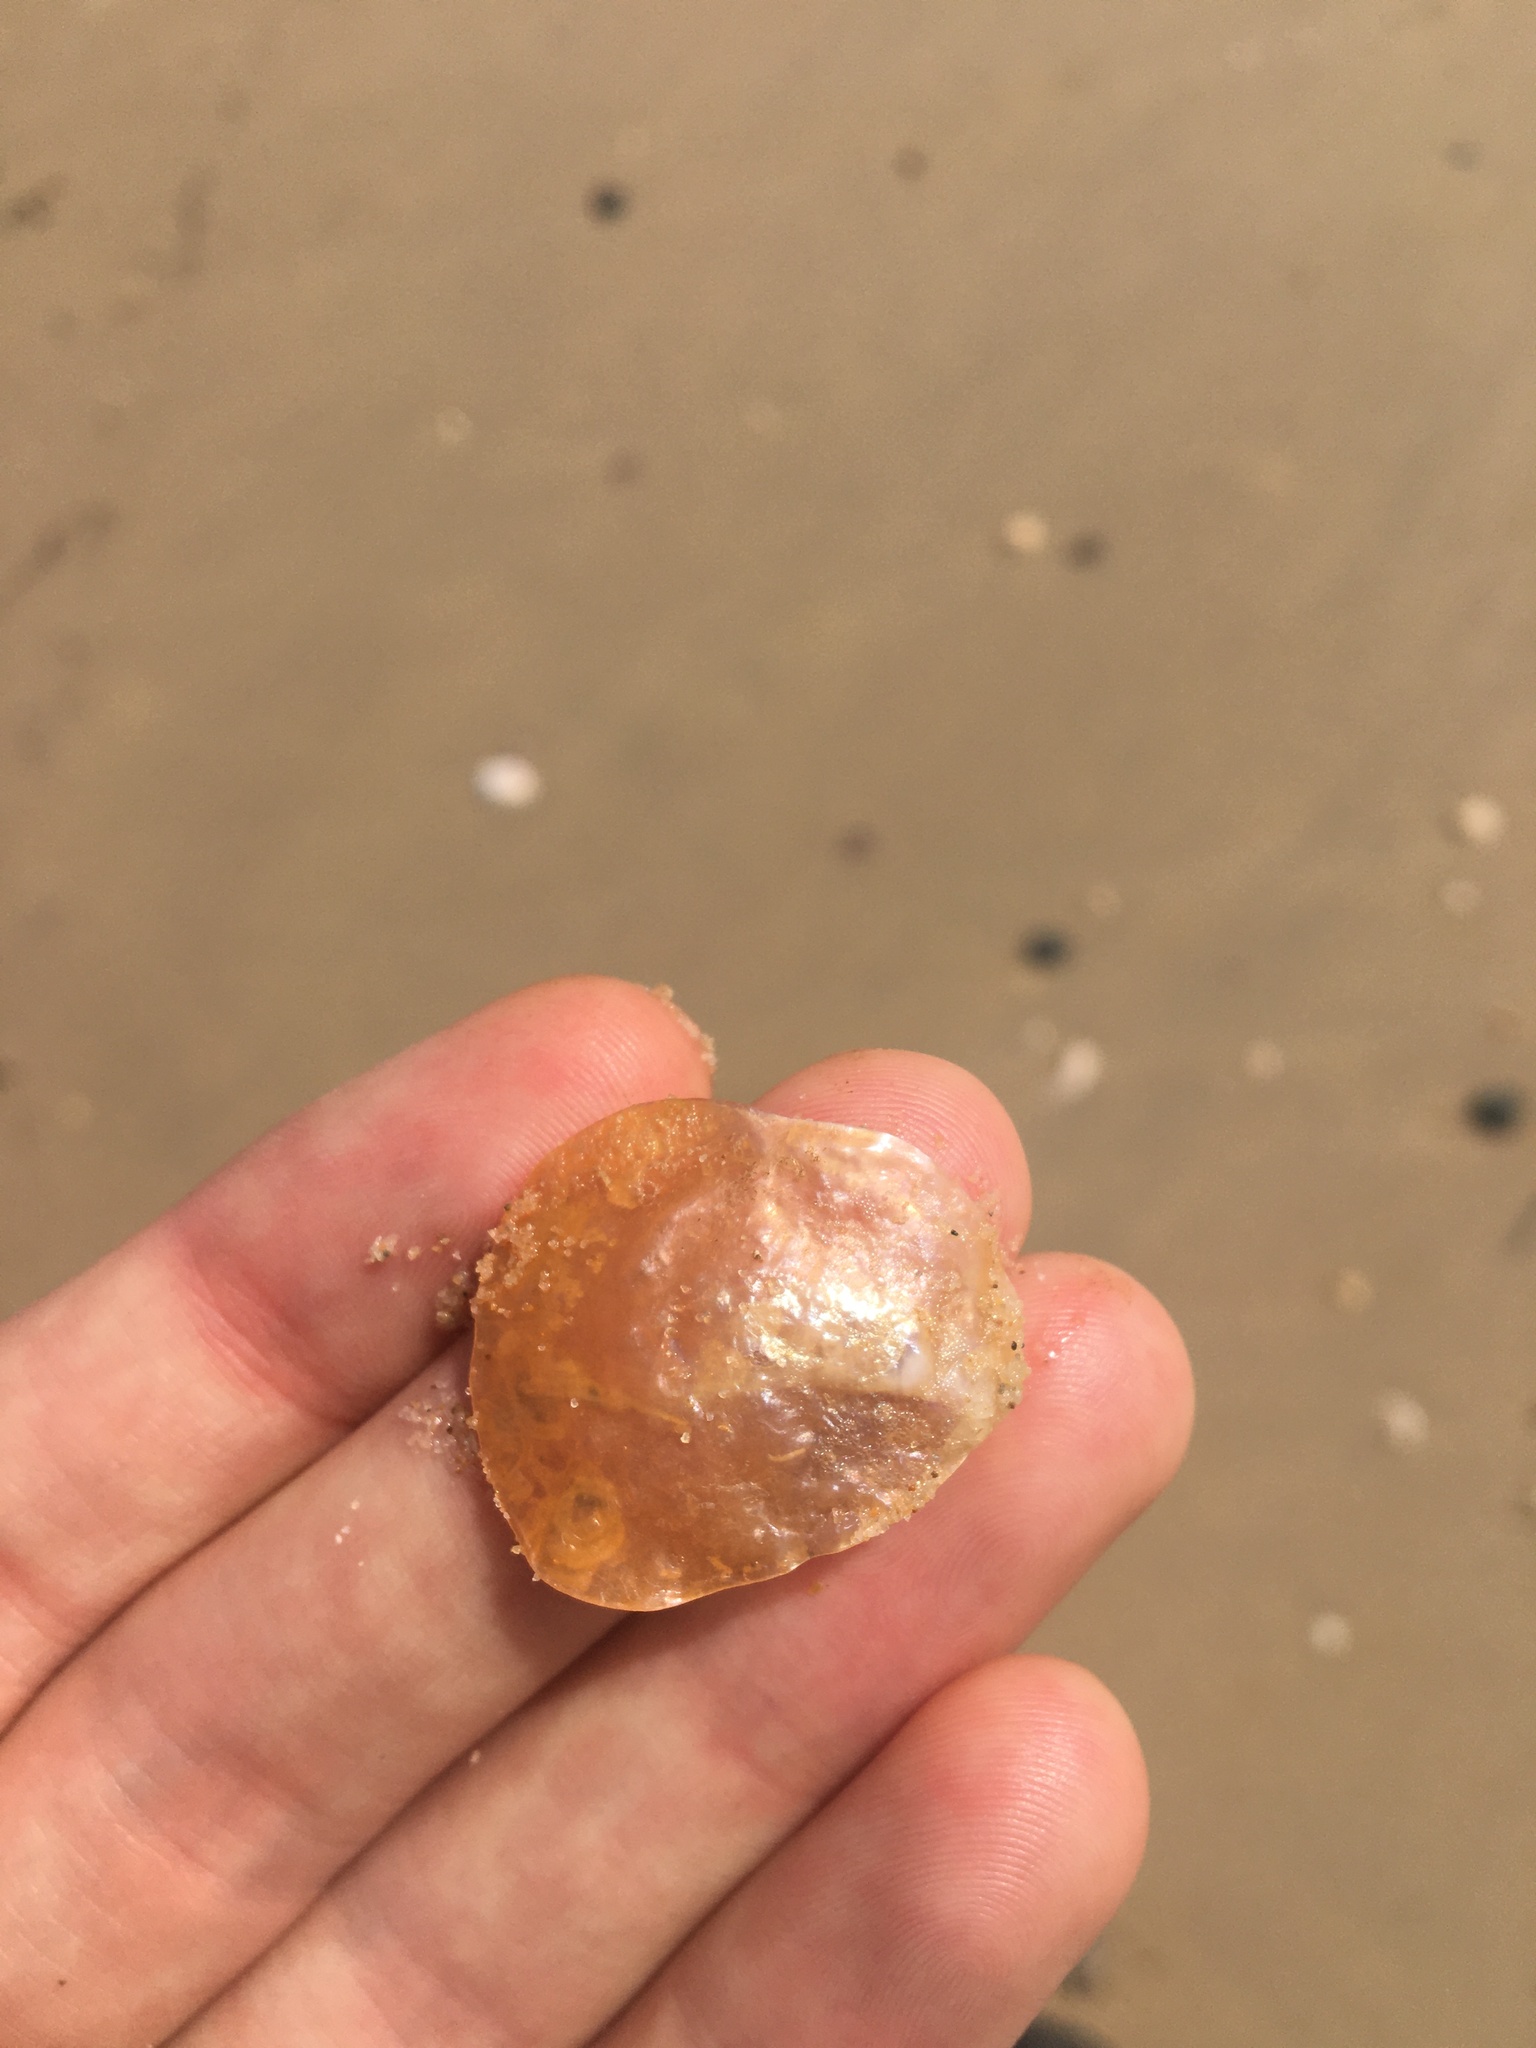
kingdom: Animalia
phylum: Mollusca
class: Bivalvia
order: Pectinida
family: Anomiidae
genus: Anomia
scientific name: Anomia trigonopsis
